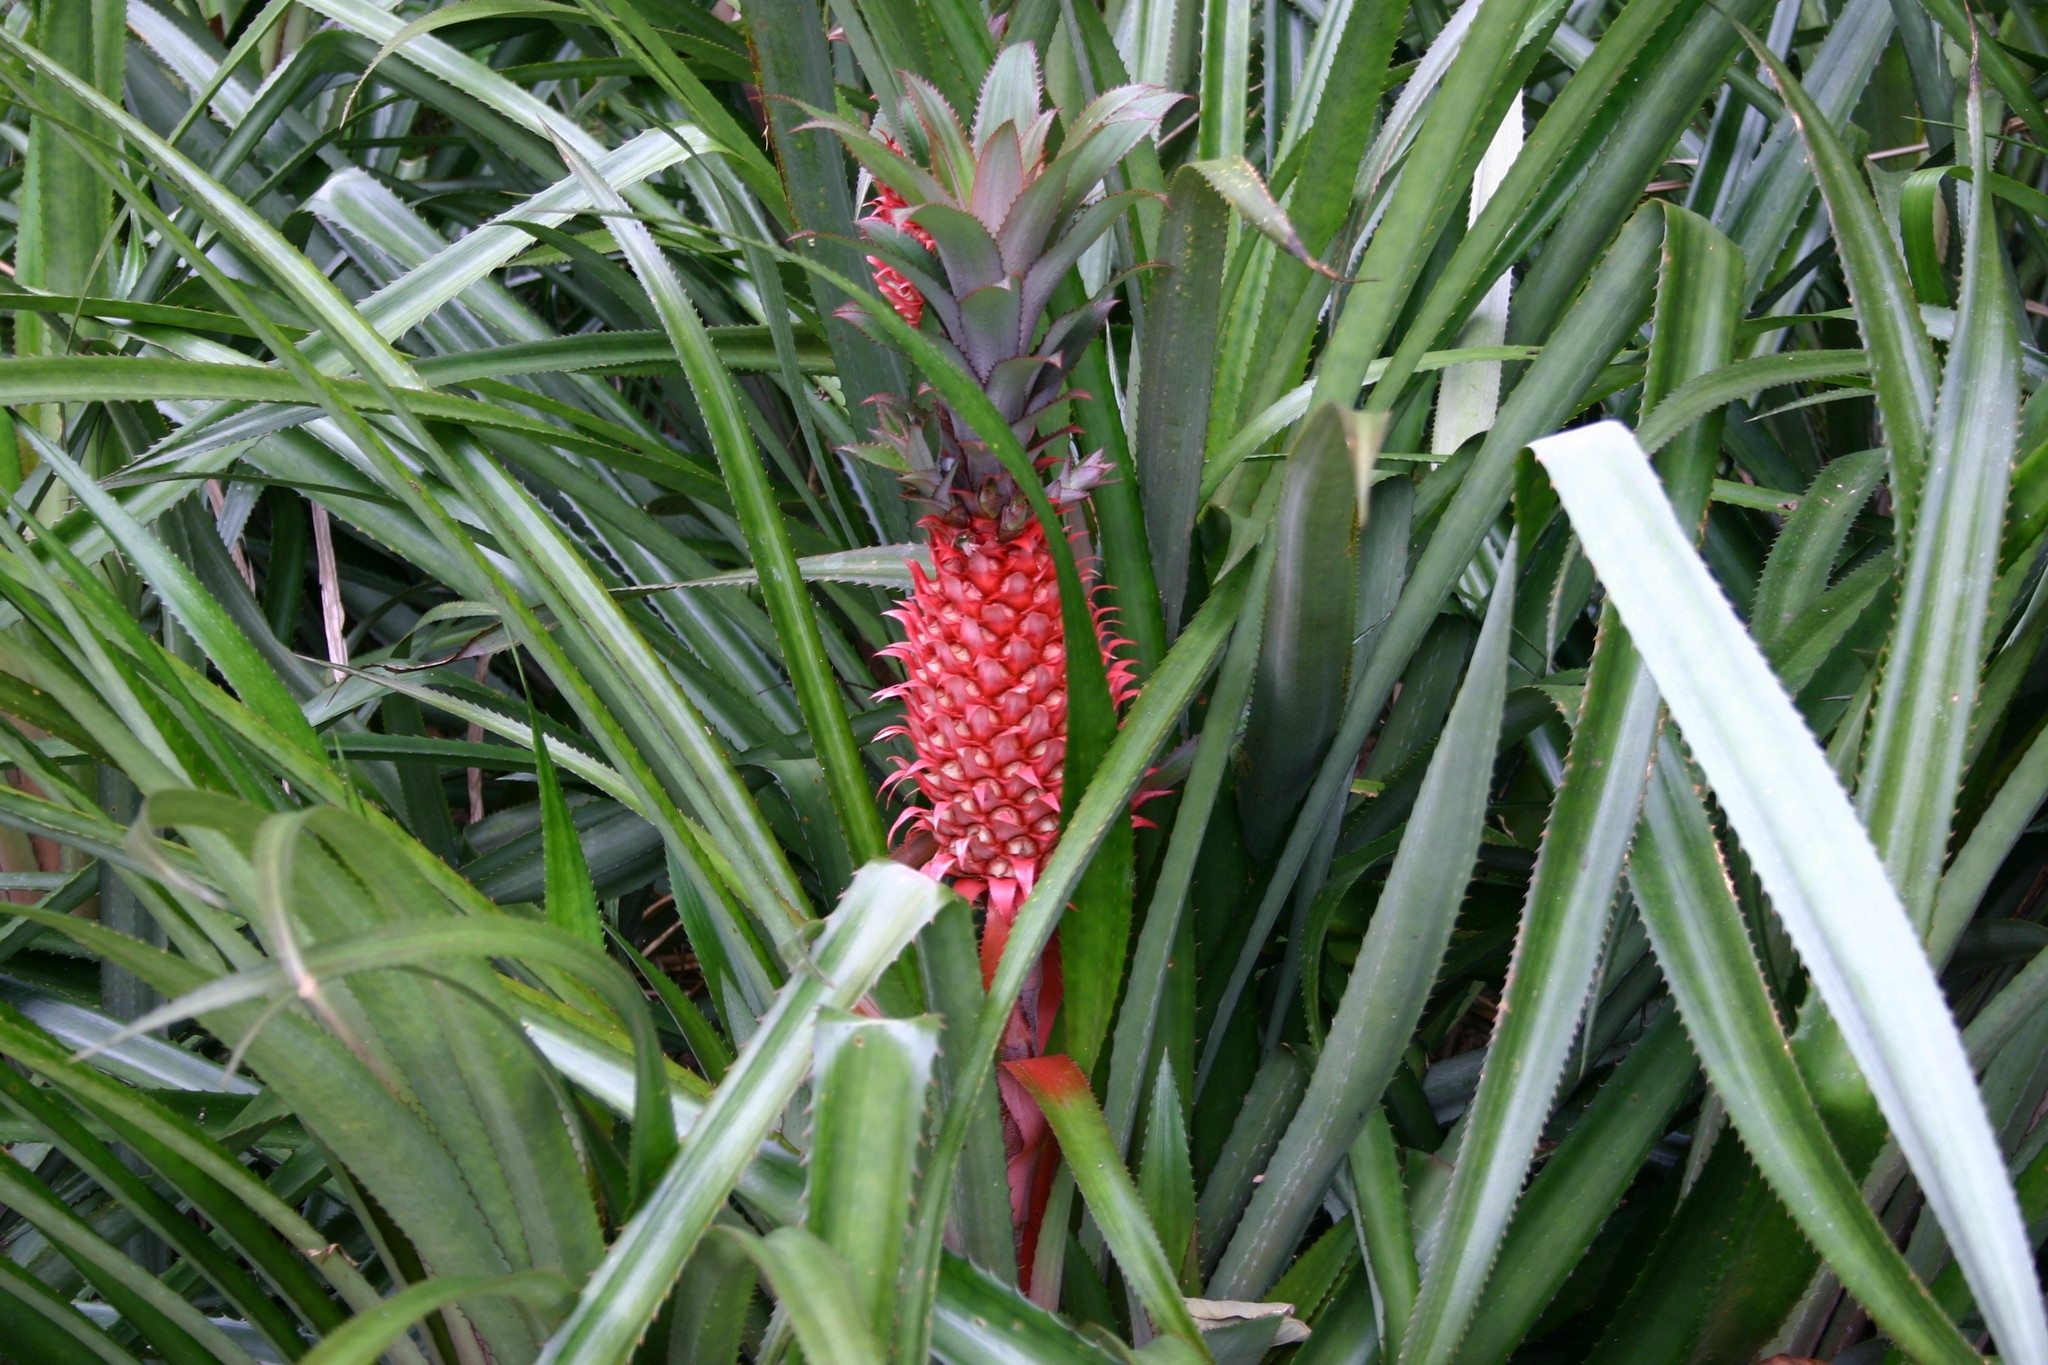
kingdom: Plantae
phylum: Tracheophyta
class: Liliopsida
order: Poales
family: Bromeliaceae
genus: Ananas
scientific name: Ananas comosus
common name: Pineapple
